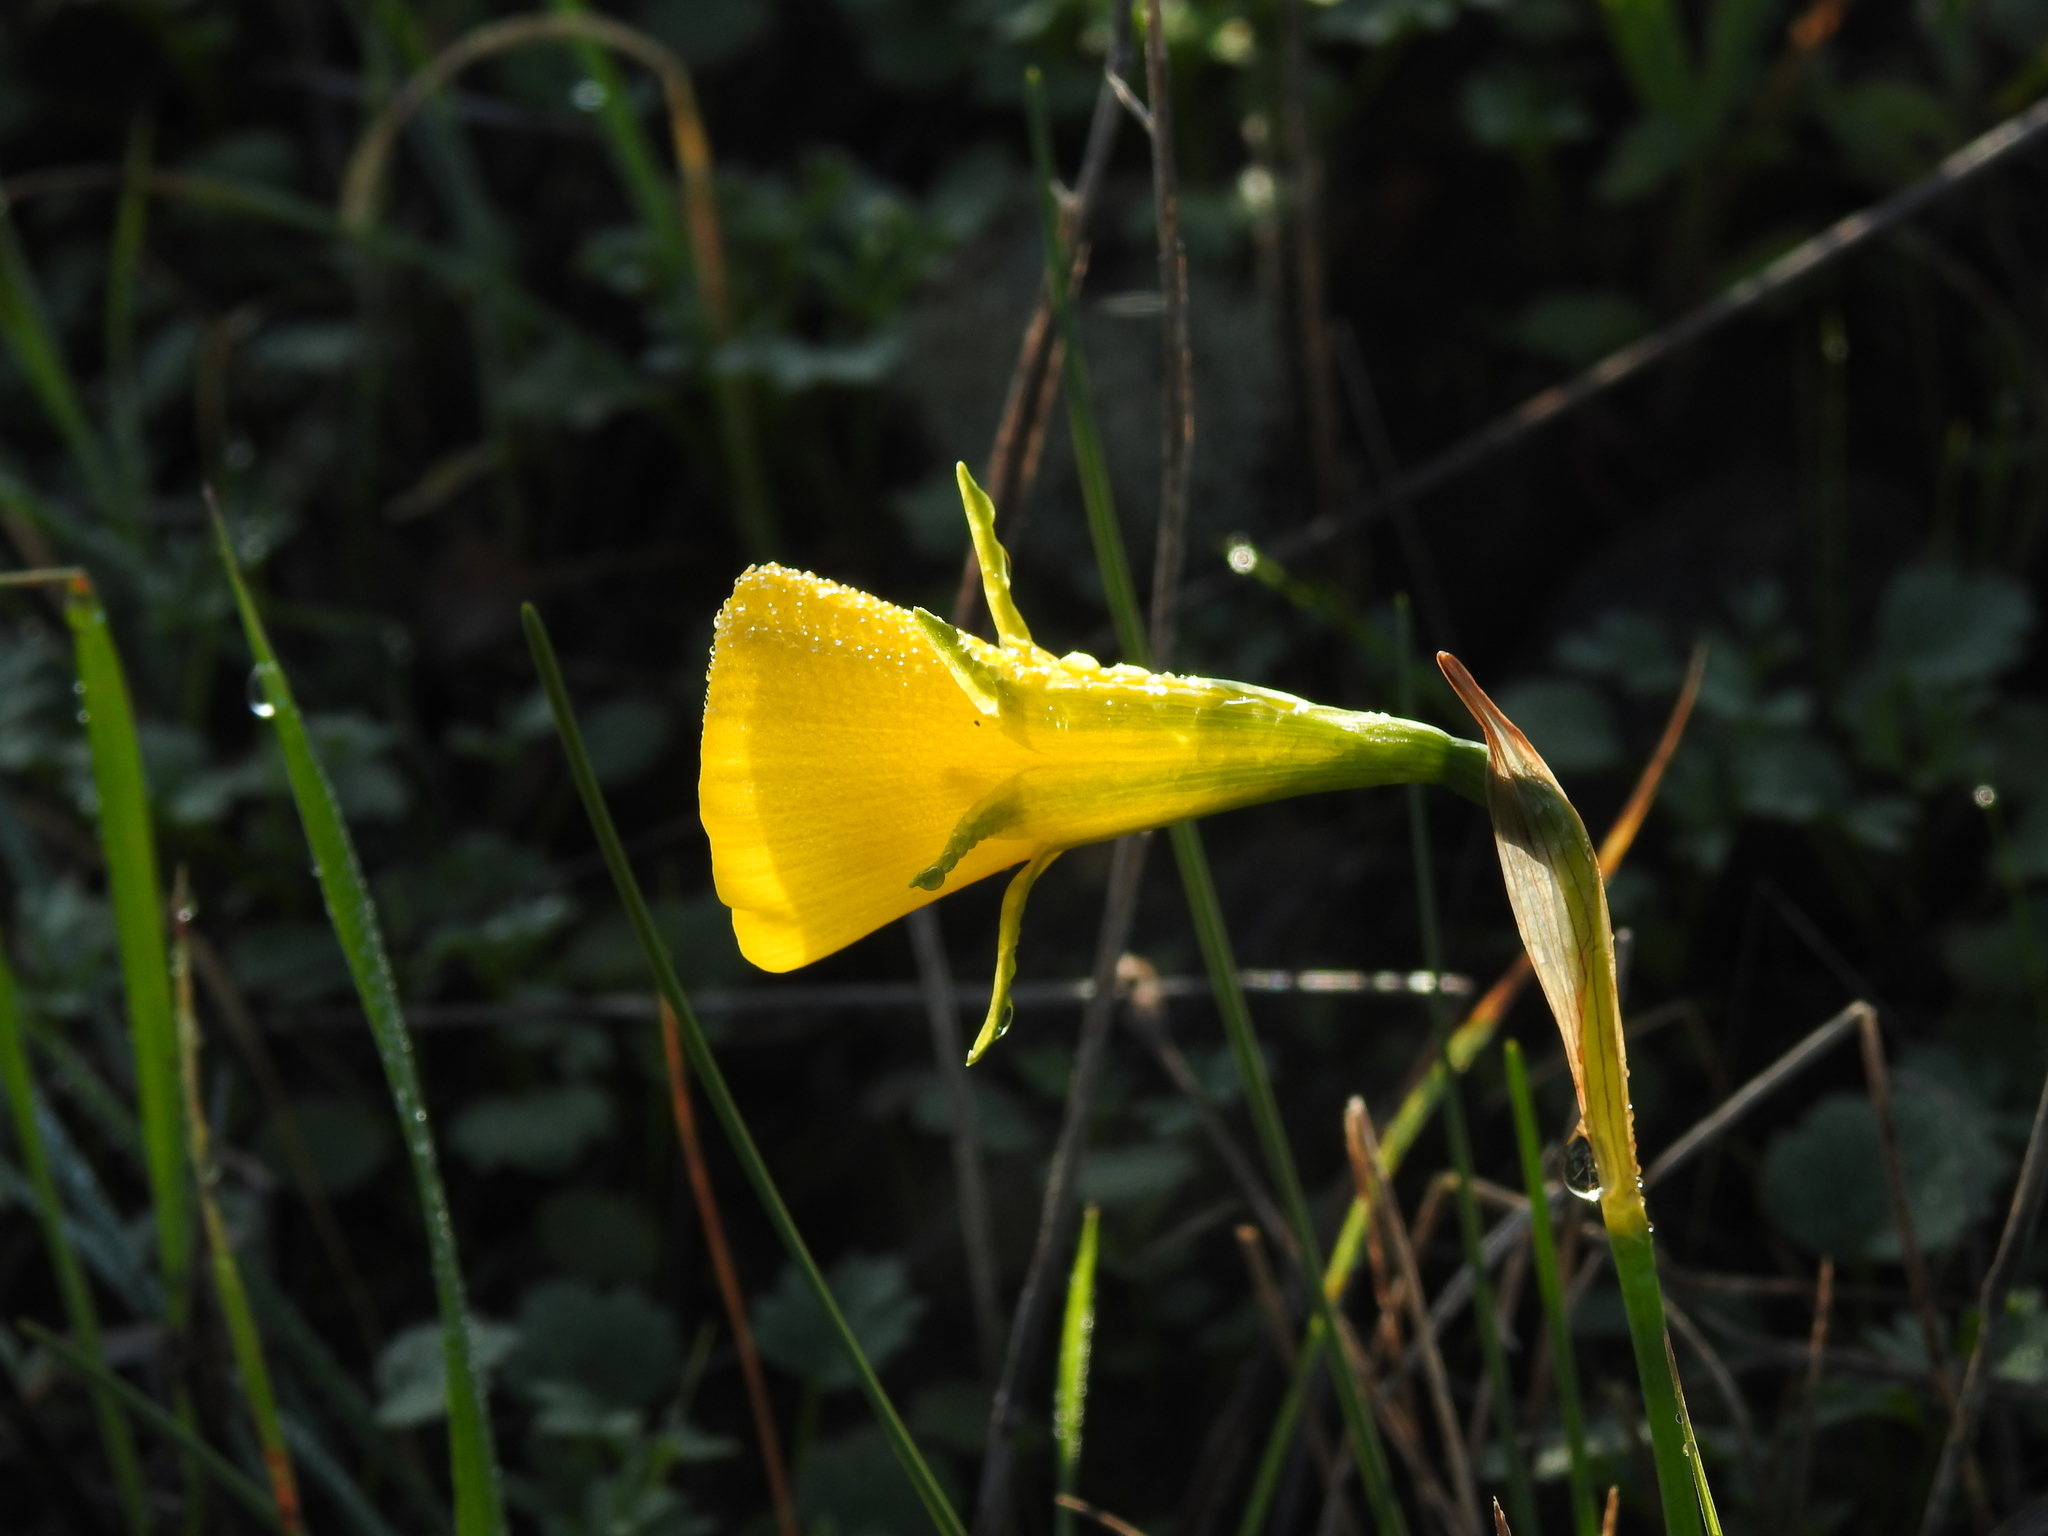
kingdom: Plantae
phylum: Tracheophyta
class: Liliopsida
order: Asparagales
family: Amaryllidaceae
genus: Narcissus
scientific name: Narcissus bulbocodium
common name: Hoop-petticoat daffodil
